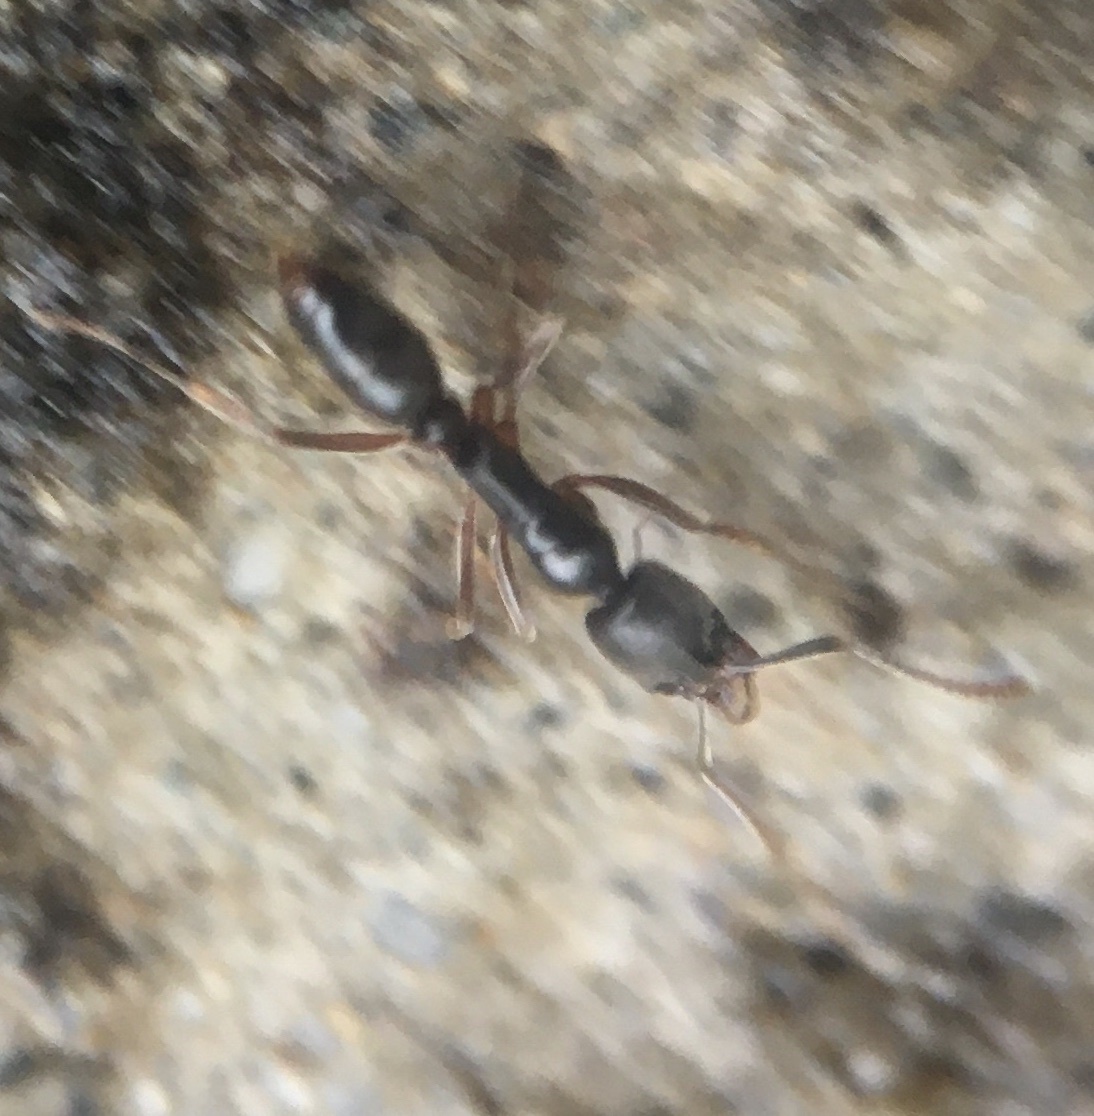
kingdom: Animalia
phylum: Arthropoda
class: Insecta
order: Hymenoptera
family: Formicidae
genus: Pachycondyla
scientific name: Pachycondyla chinensis
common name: Asian needle ant
